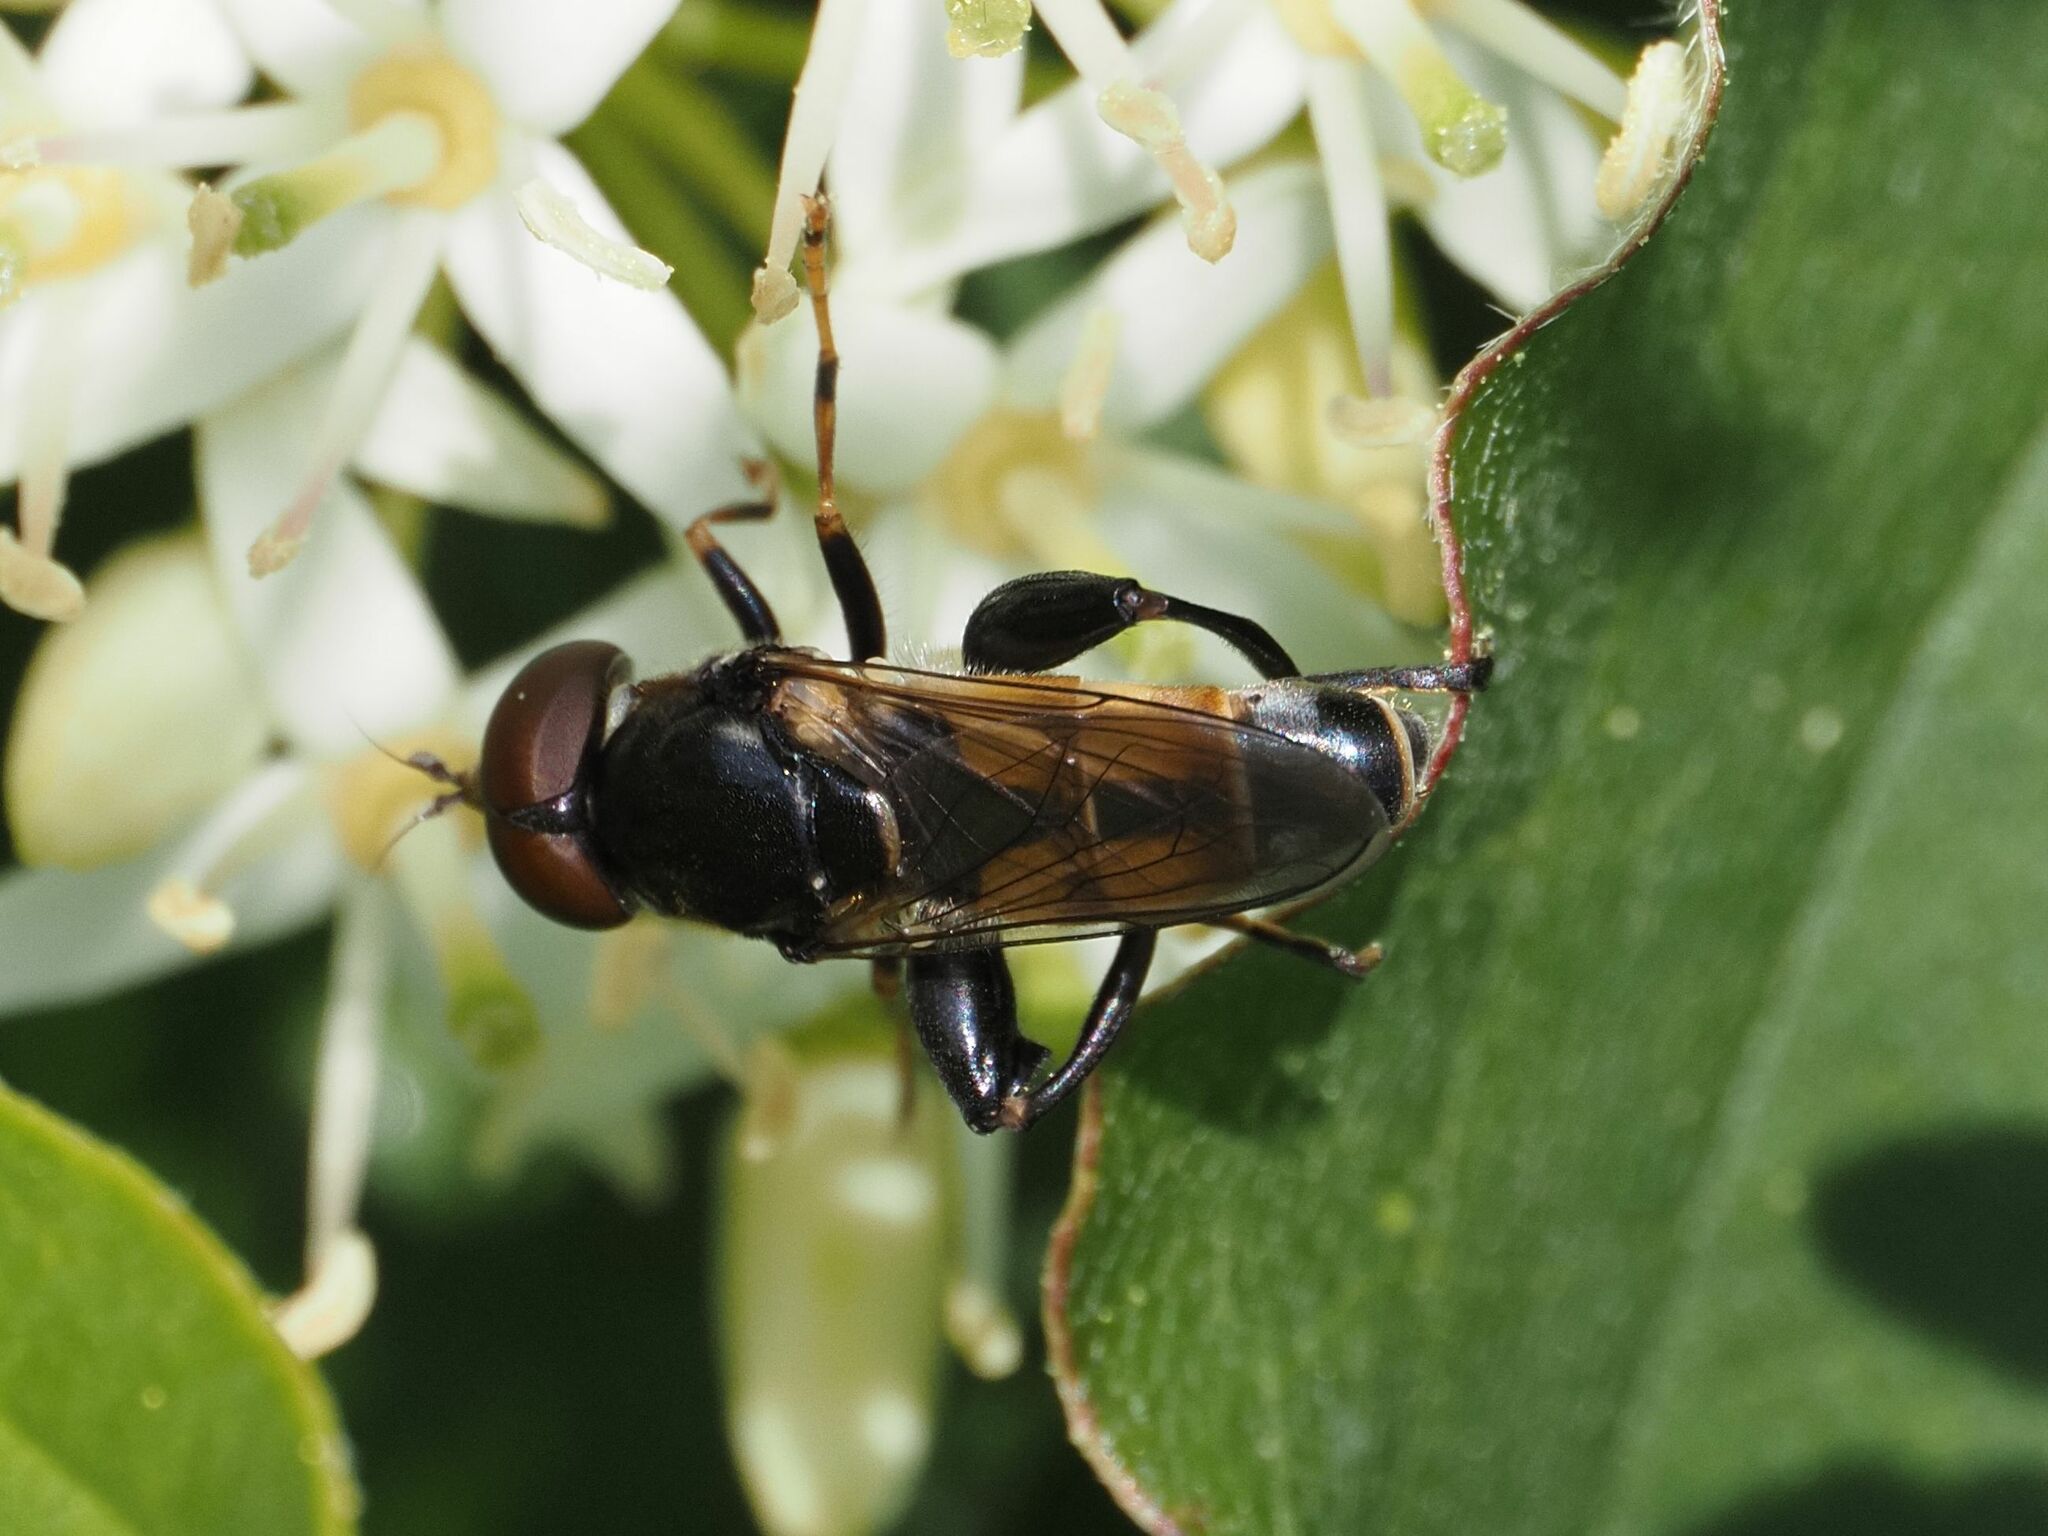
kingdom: Animalia
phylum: Arthropoda
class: Insecta
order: Diptera
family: Syrphidae
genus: Tropidia
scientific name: Tropidia scita
